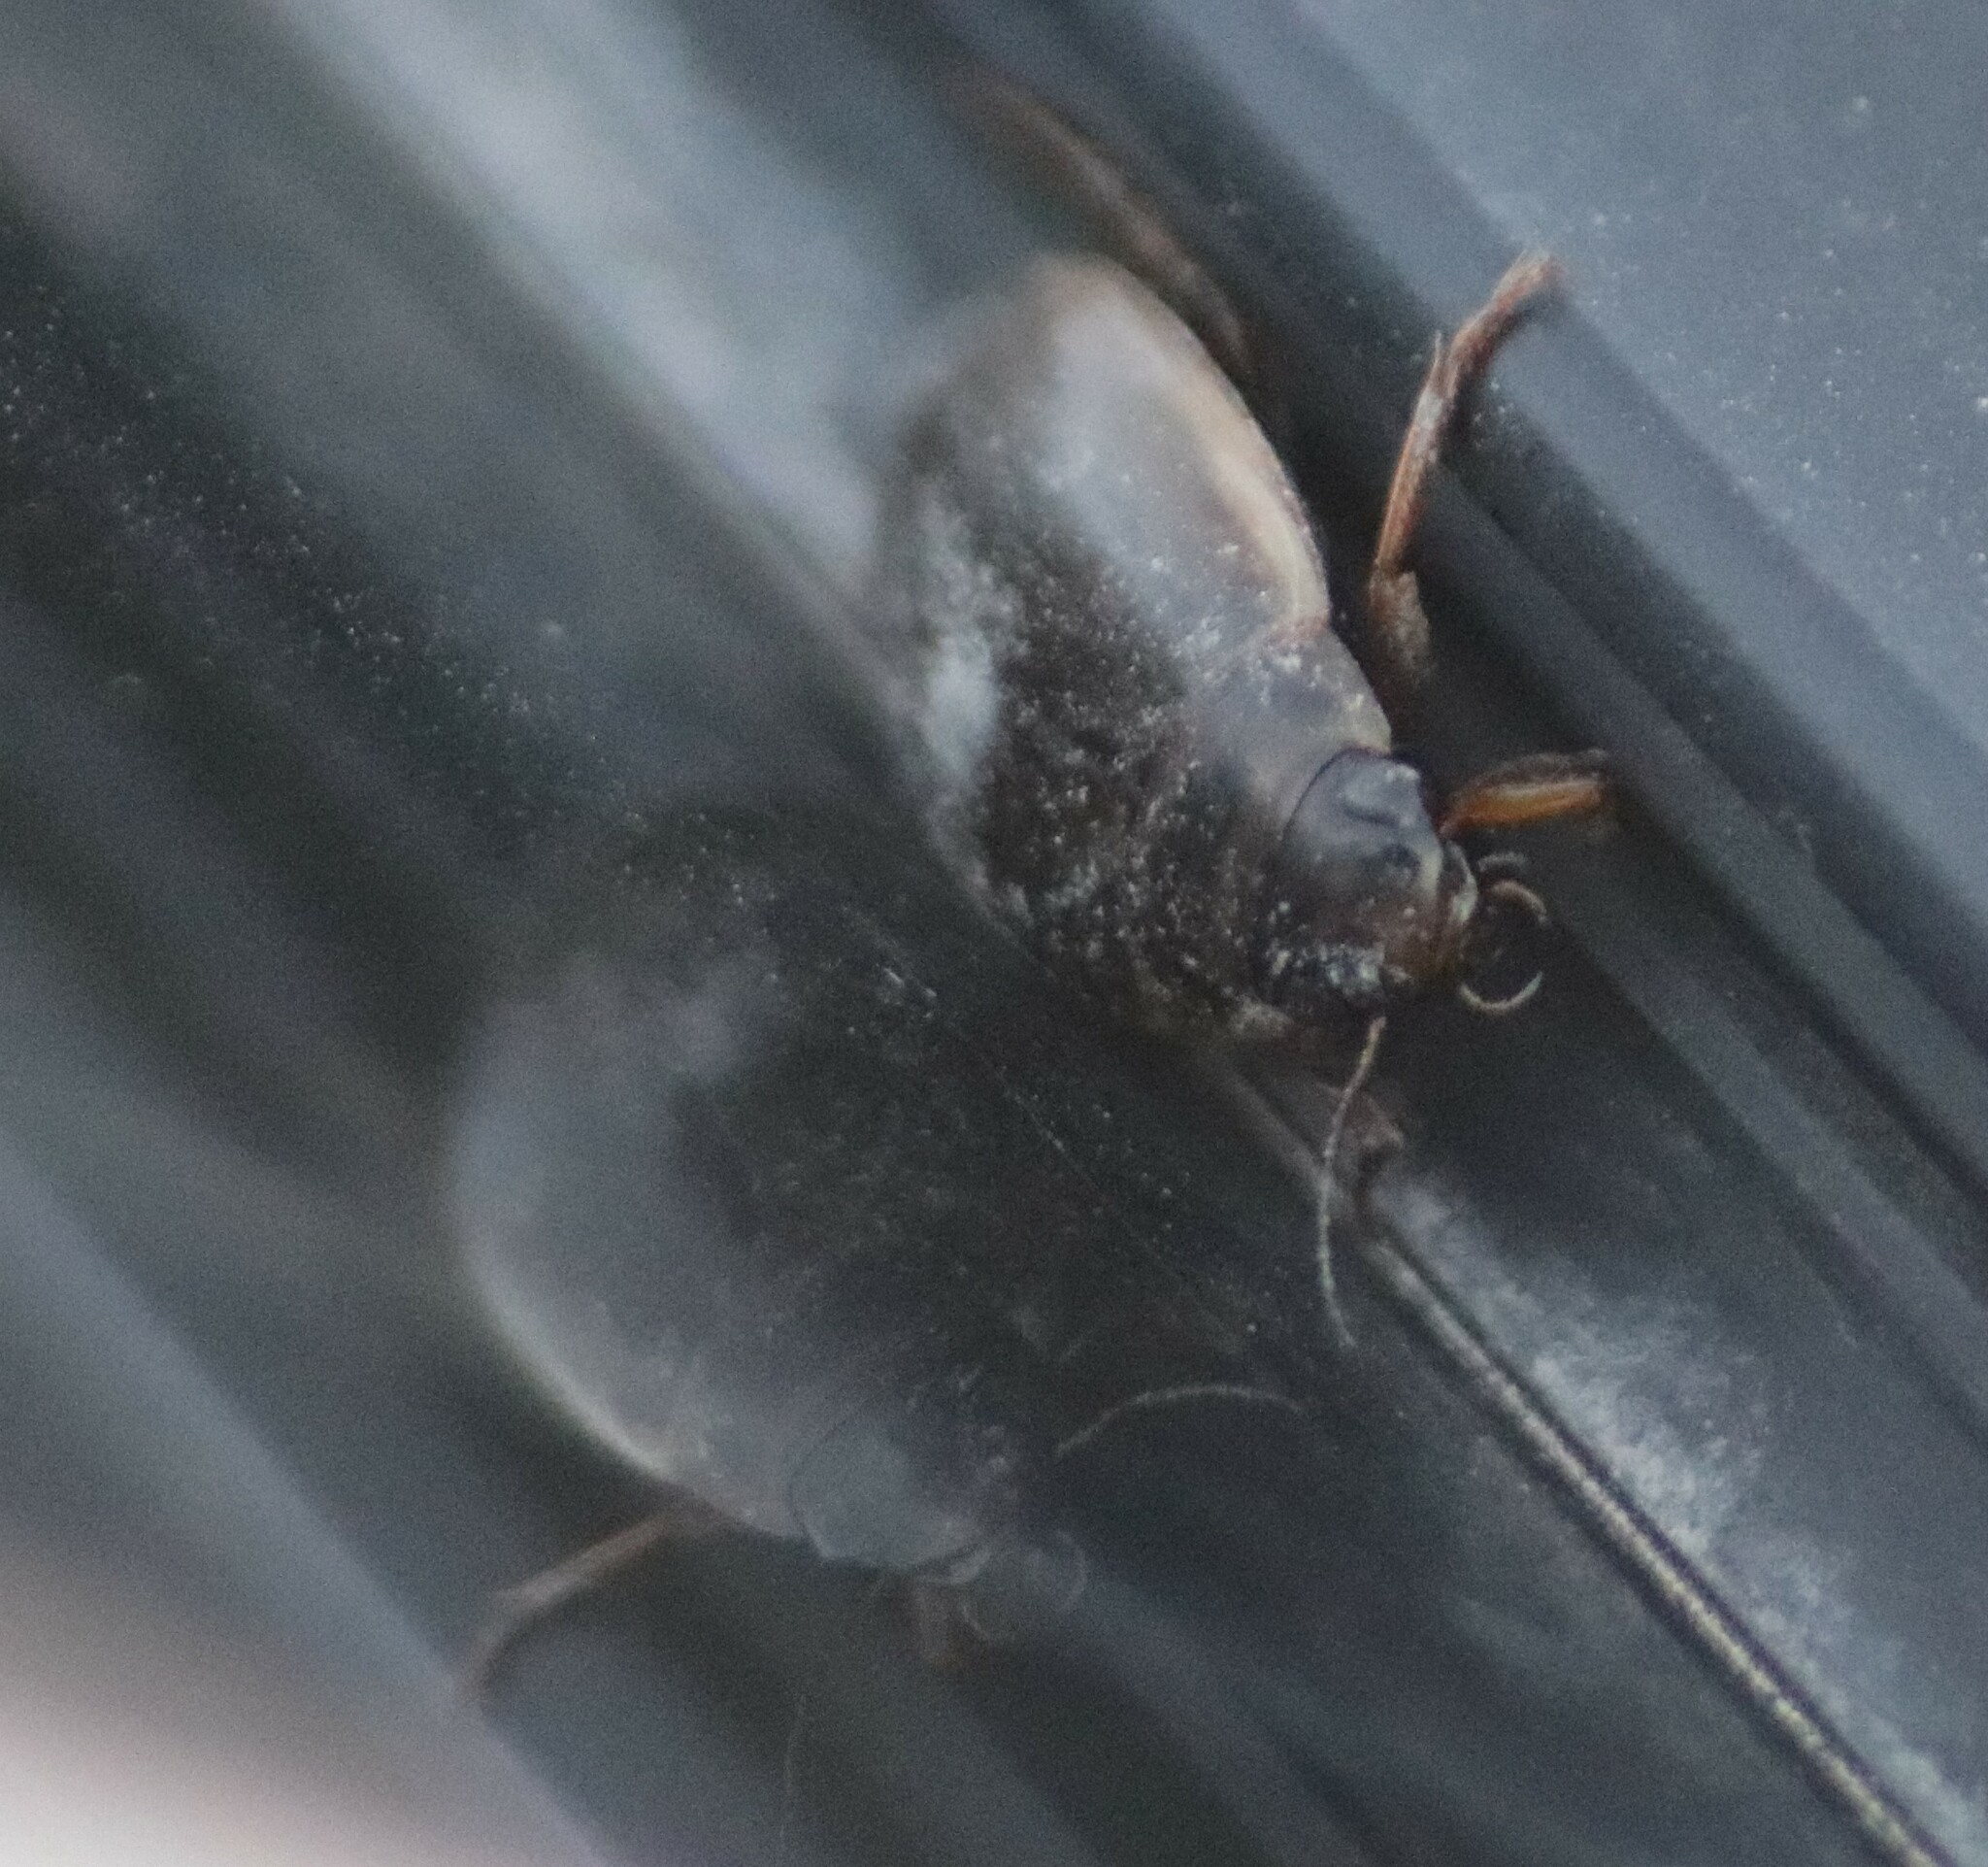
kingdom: Animalia
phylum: Arthropoda
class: Insecta
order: Coleoptera
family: Dytiscidae
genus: Colymbetes
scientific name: Colymbetes
